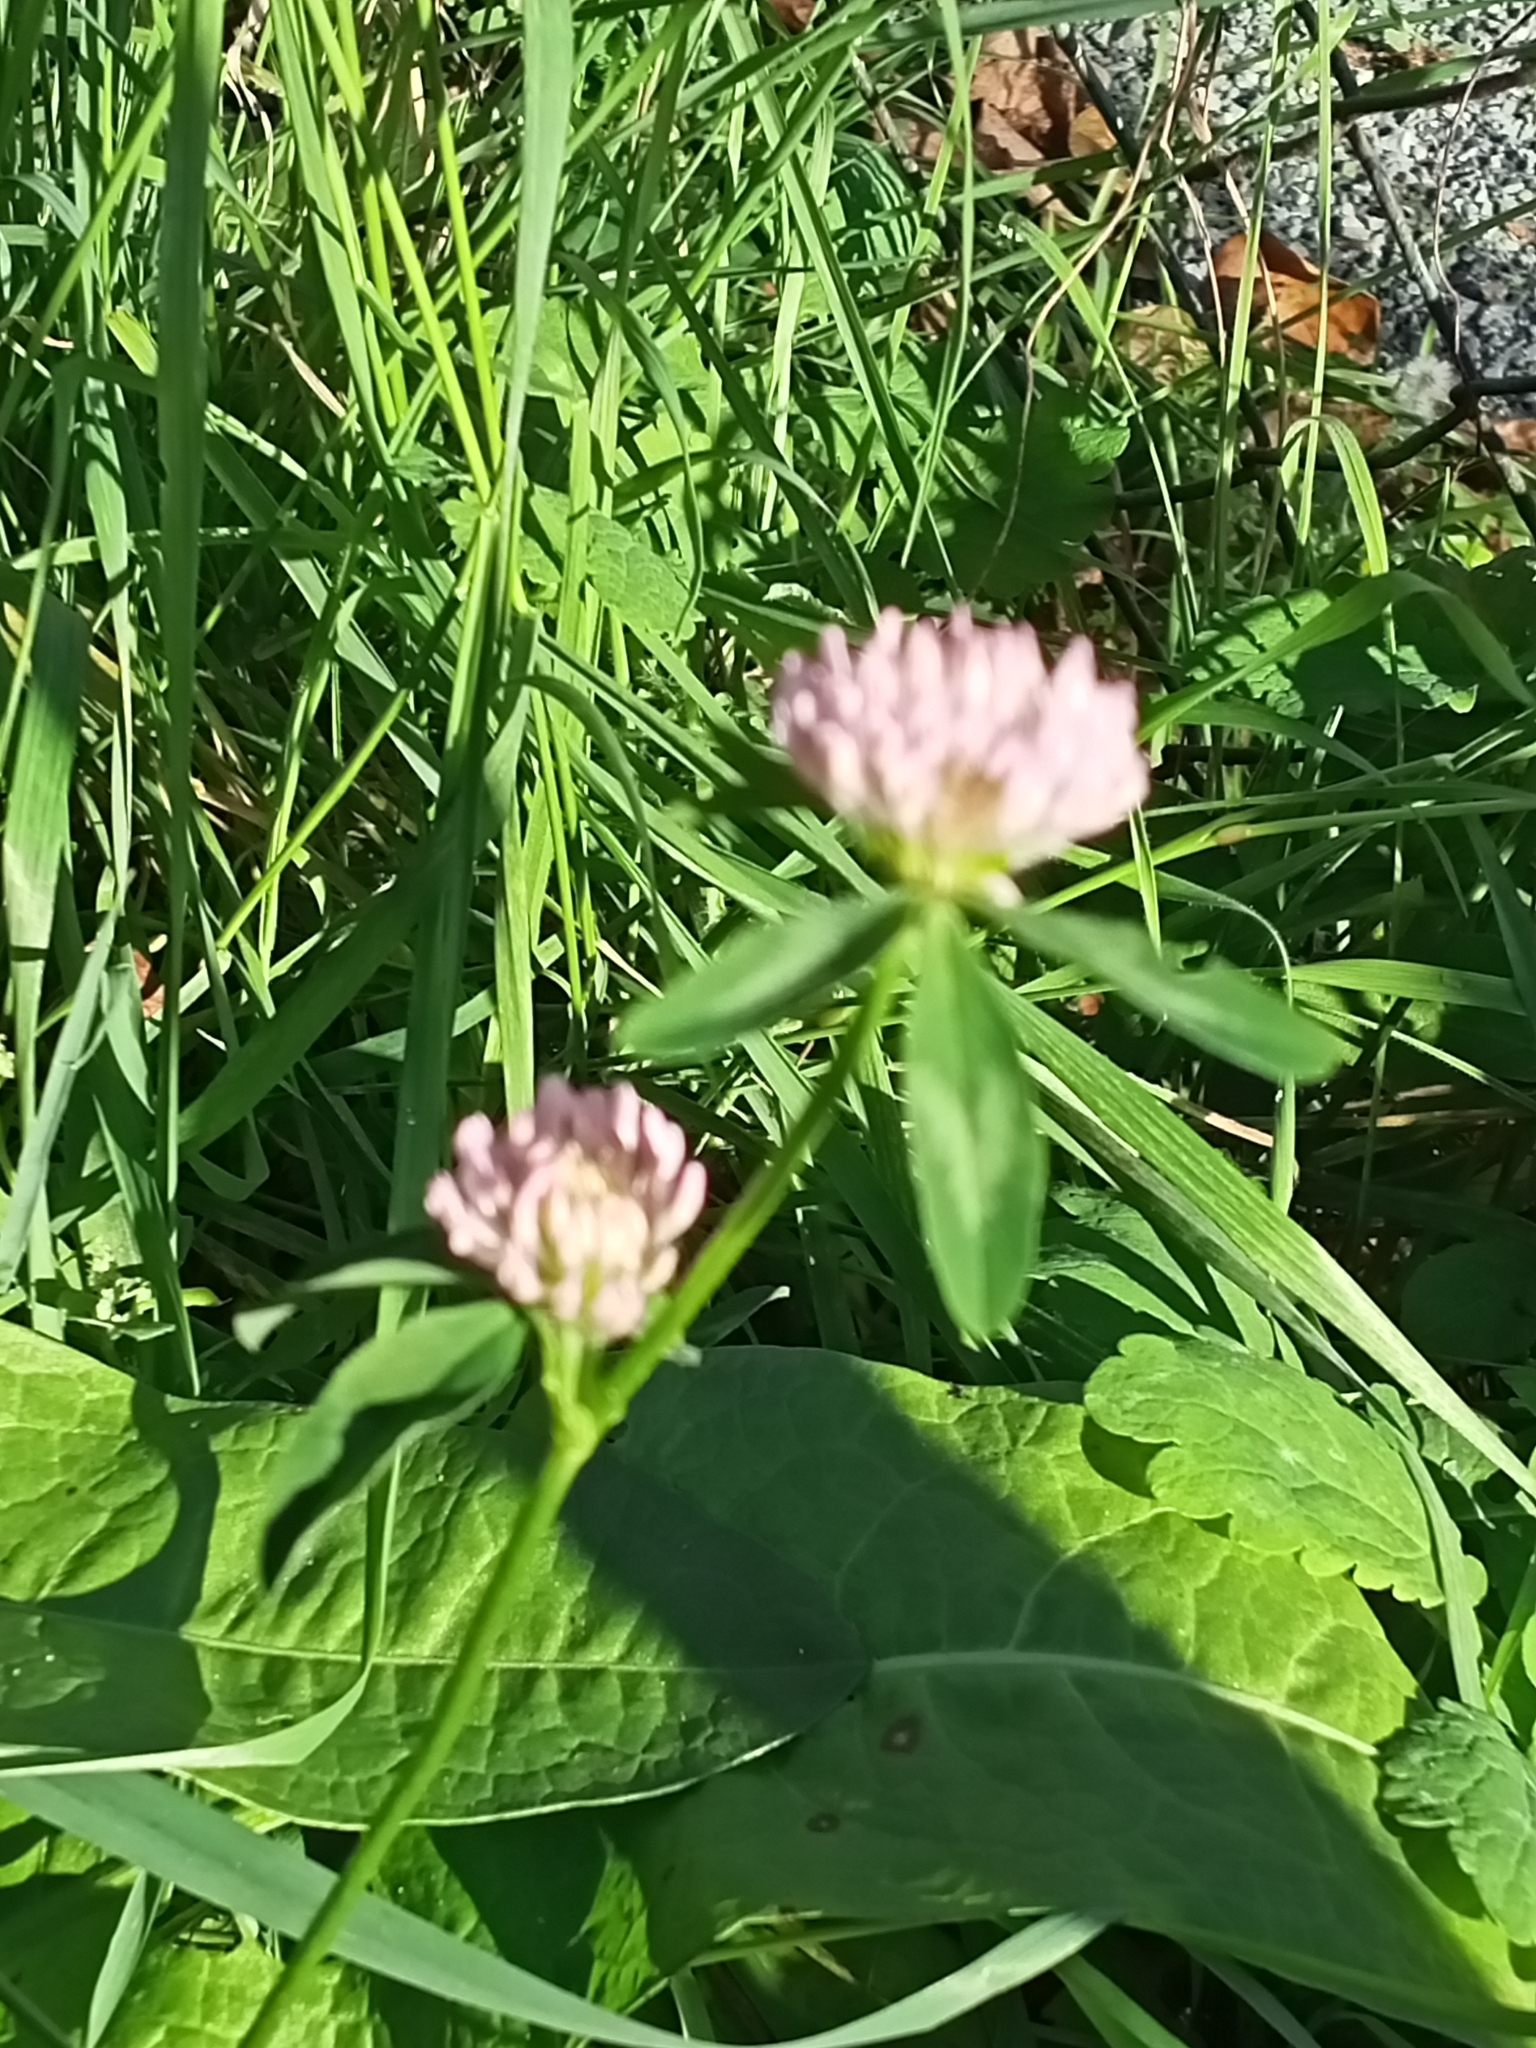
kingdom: Plantae
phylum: Tracheophyta
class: Magnoliopsida
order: Fabales
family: Fabaceae
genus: Trifolium
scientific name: Trifolium pratense
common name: Red clover
